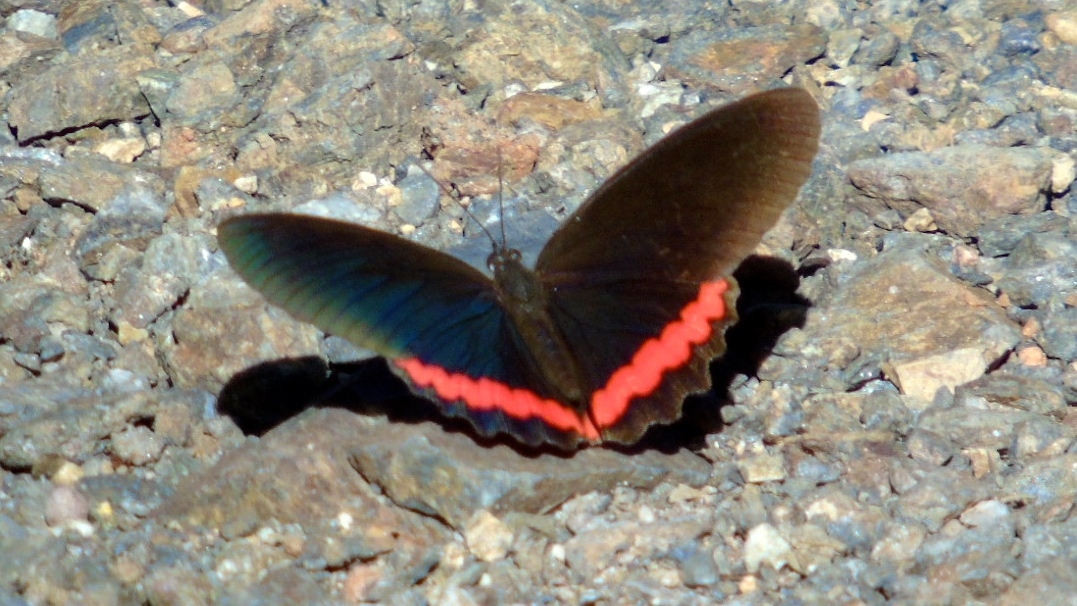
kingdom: Animalia
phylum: Arthropoda
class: Insecta
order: Lepidoptera
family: Nymphalidae
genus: Biblis
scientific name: Biblis aganisa
